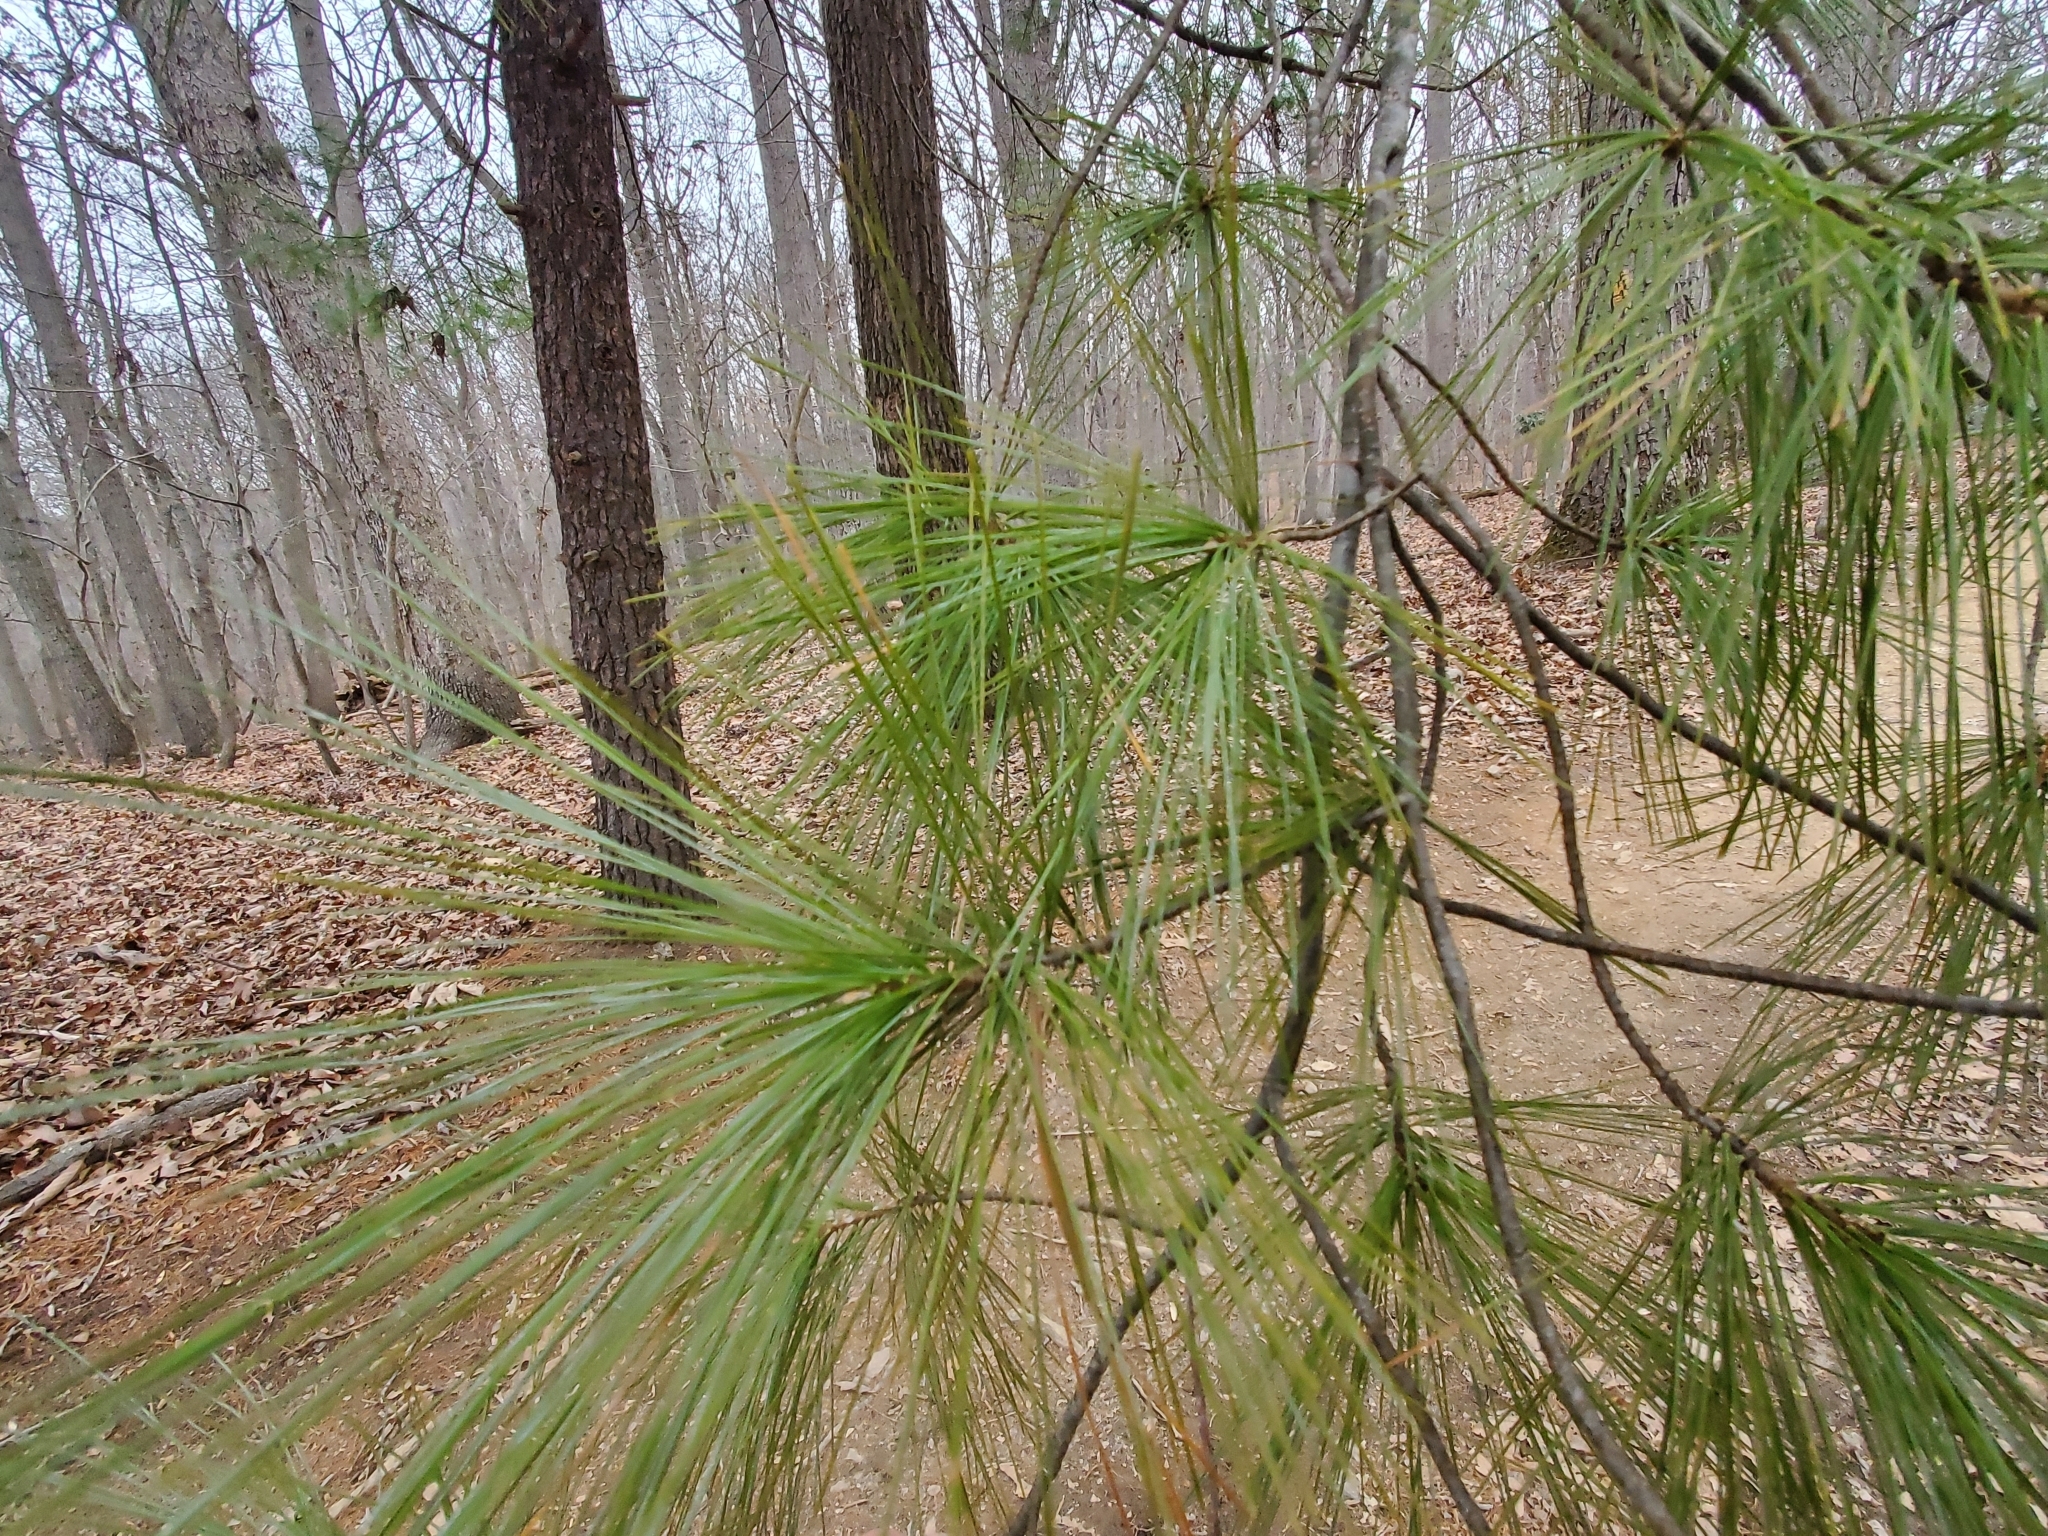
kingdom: Plantae
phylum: Tracheophyta
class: Pinopsida
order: Pinales
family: Pinaceae
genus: Pinus
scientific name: Pinus strobus
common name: Weymouth pine
